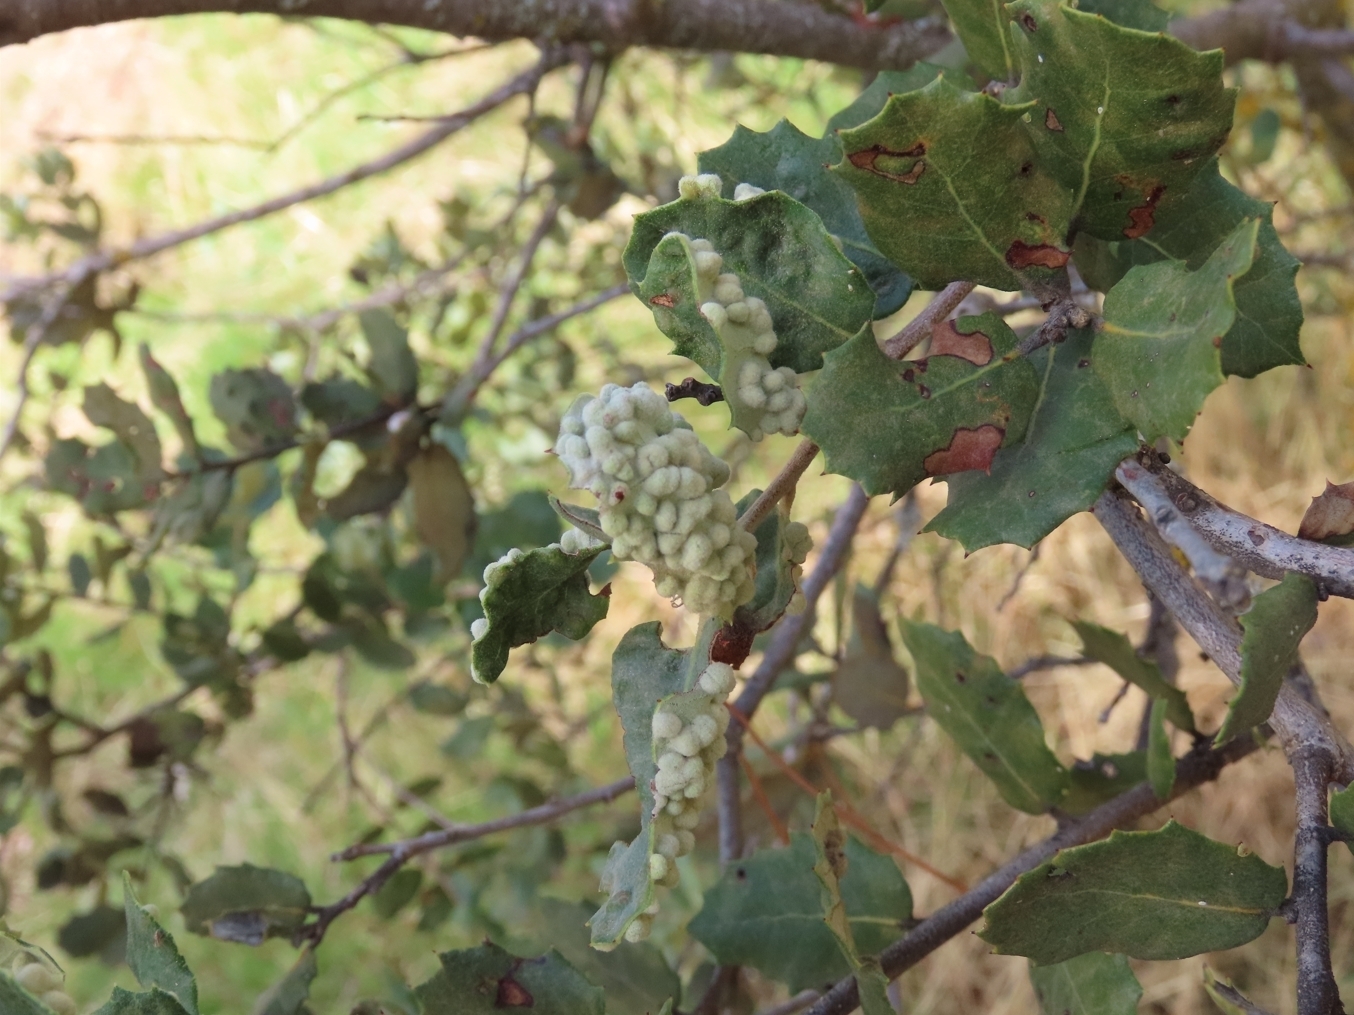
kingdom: Animalia
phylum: Arthropoda
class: Insecta
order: Diptera
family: Cecidomyiidae
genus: Dryomyia
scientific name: Dryomyia lichtensteinii
